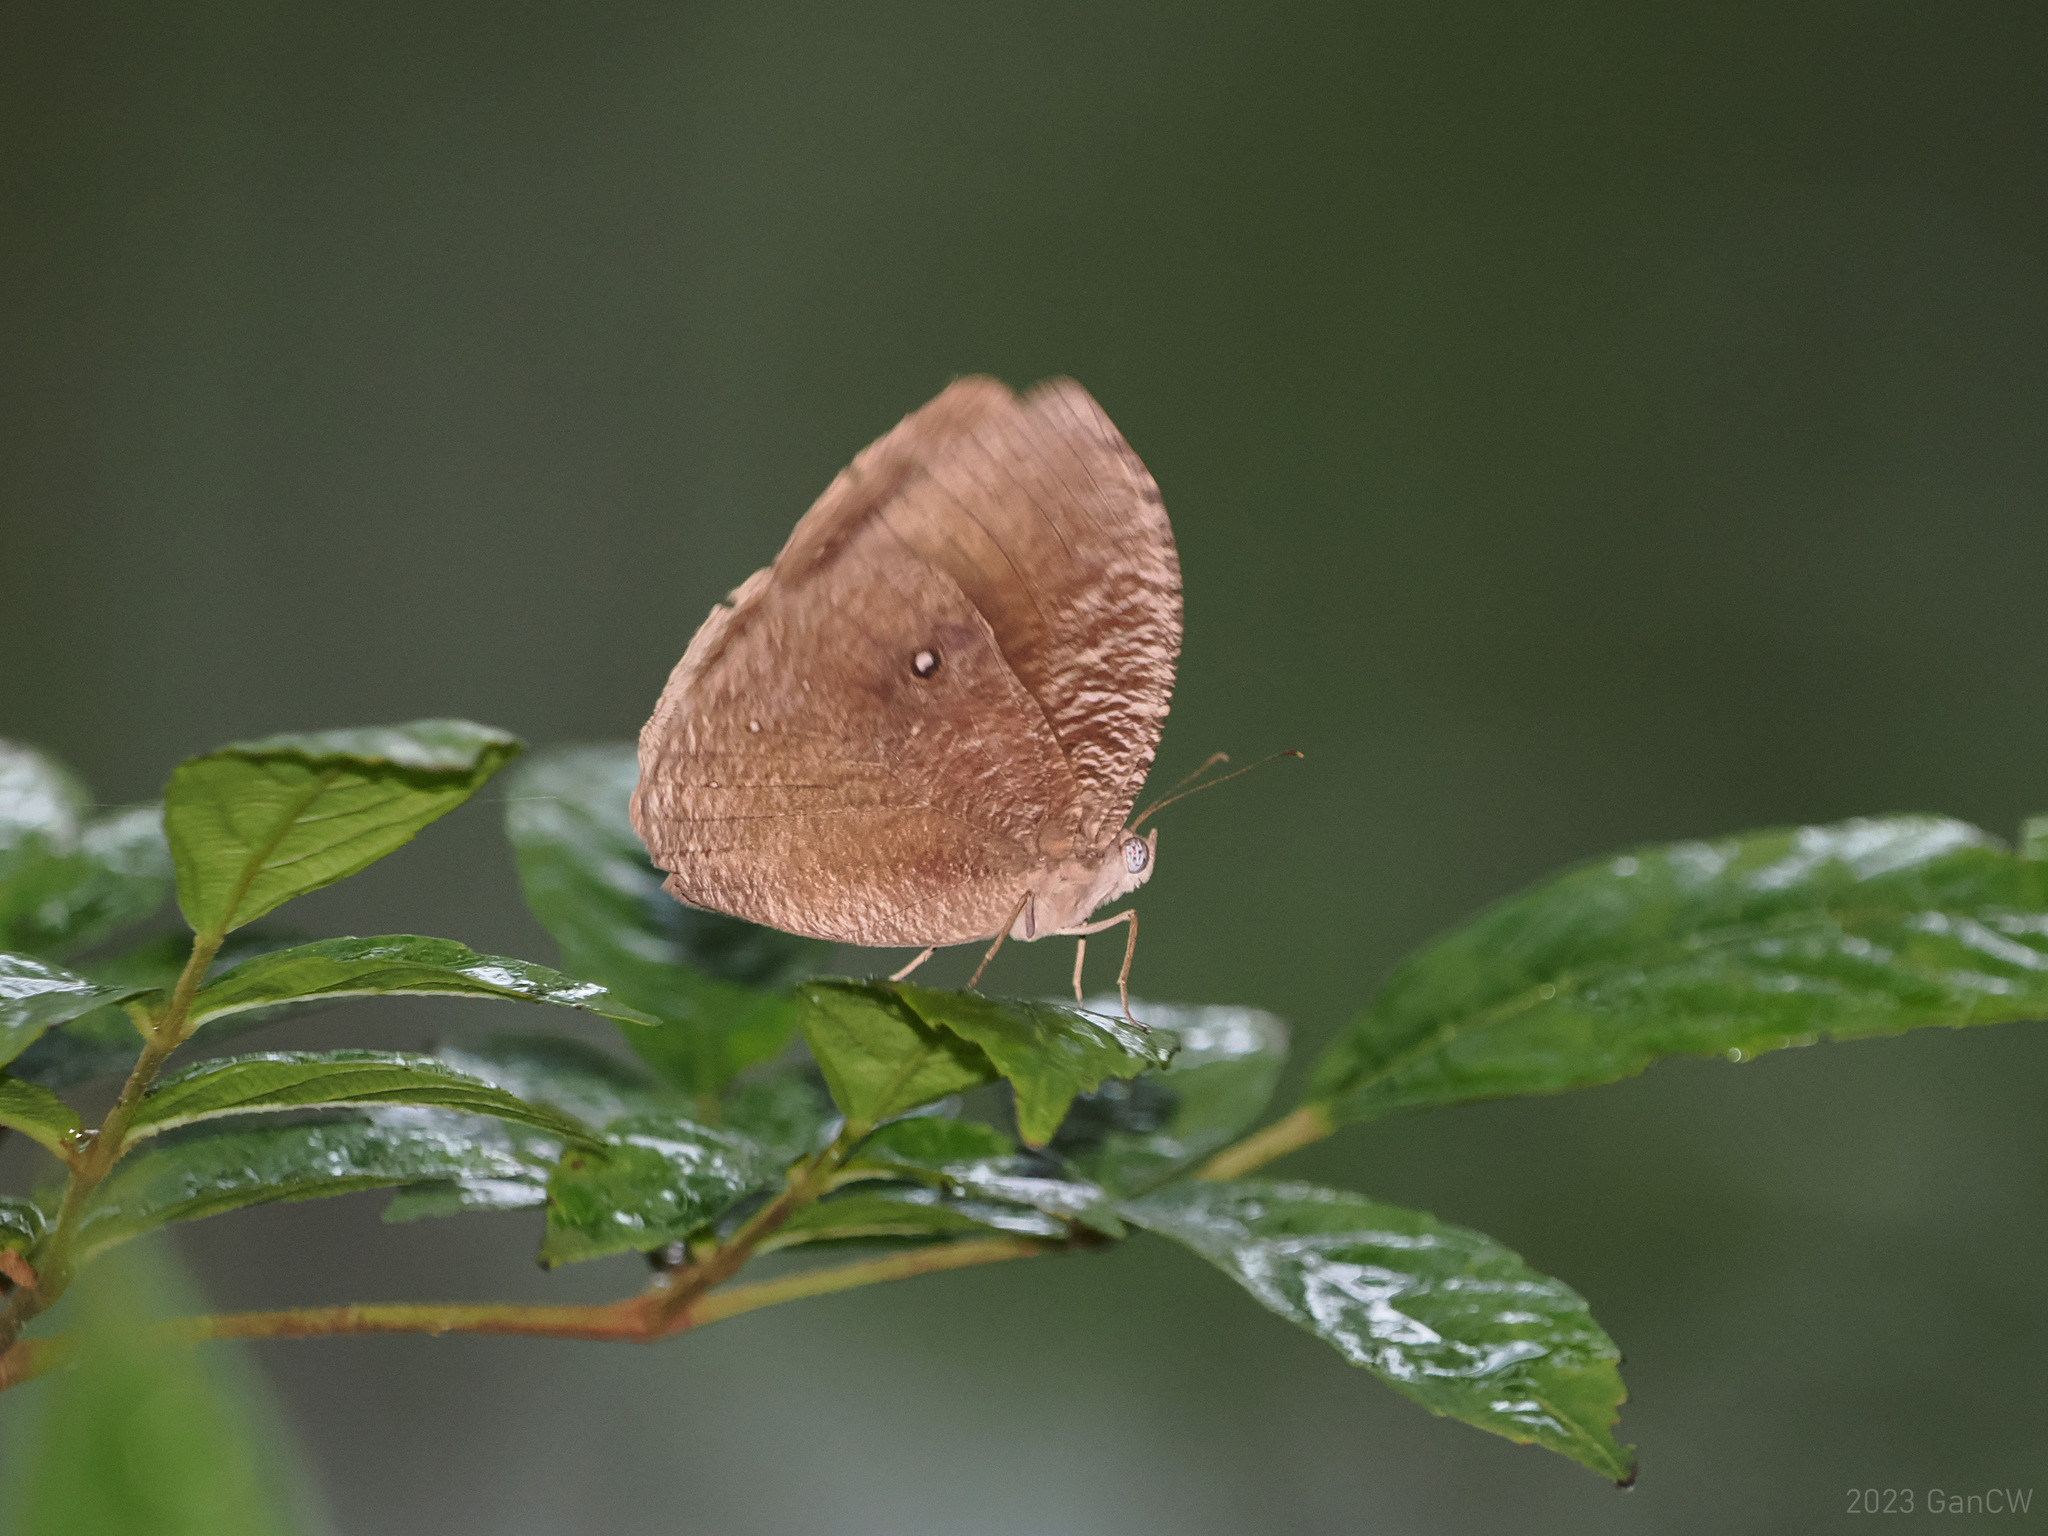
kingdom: Animalia
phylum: Arthropoda
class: Insecta
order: Lepidoptera
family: Nymphalidae
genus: Bletogona
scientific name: Bletogona mycalesis
